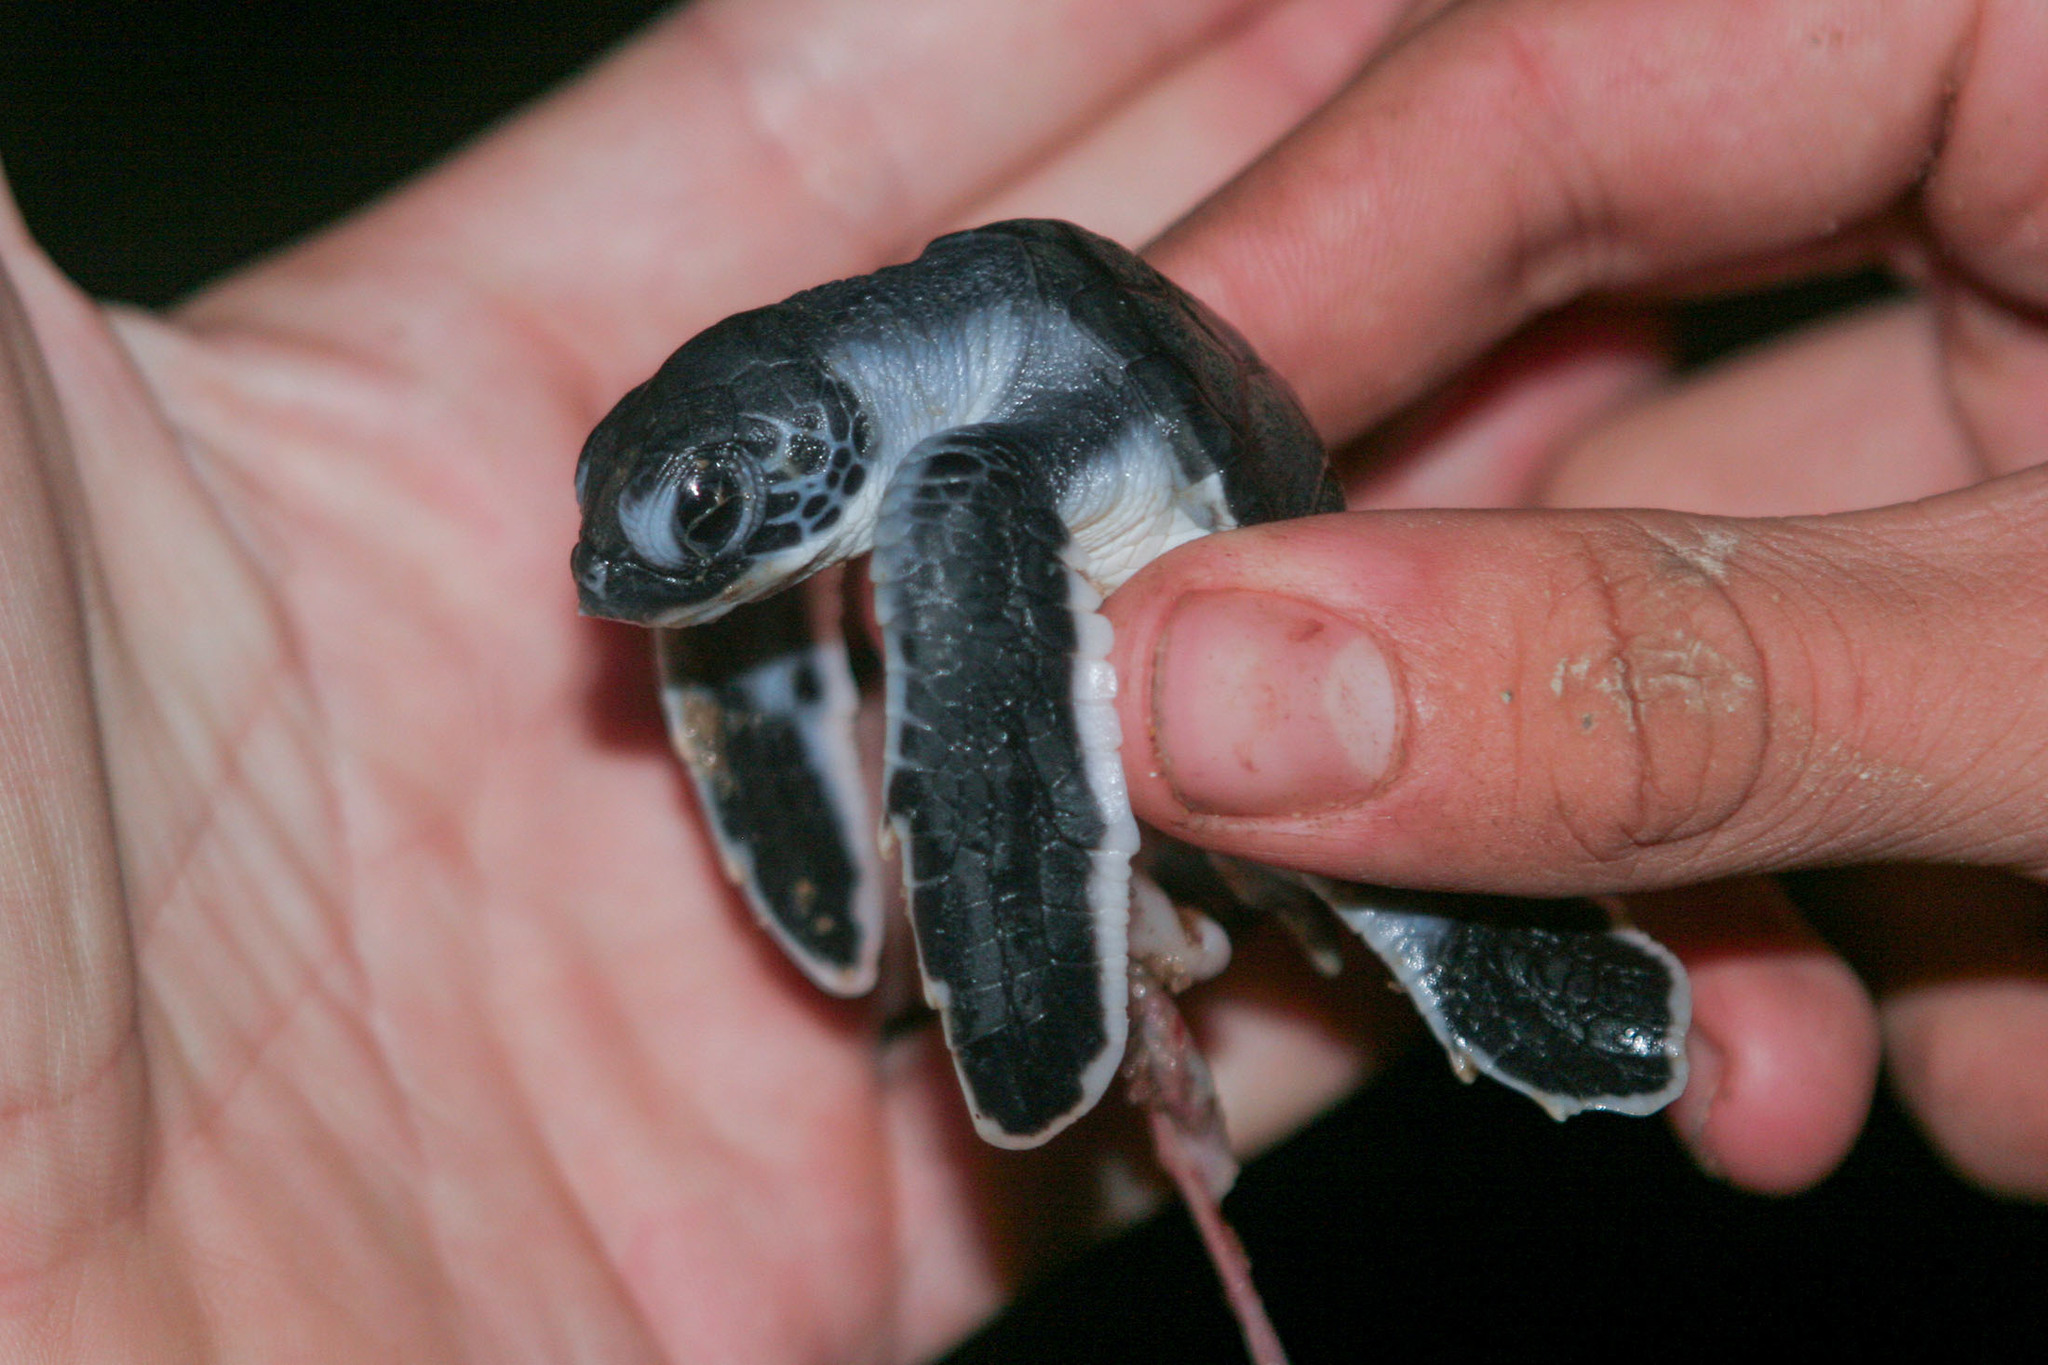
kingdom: Animalia
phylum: Chordata
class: Testudines
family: Cheloniidae
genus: Chelonia
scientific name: Chelonia mydas
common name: Green turtle
